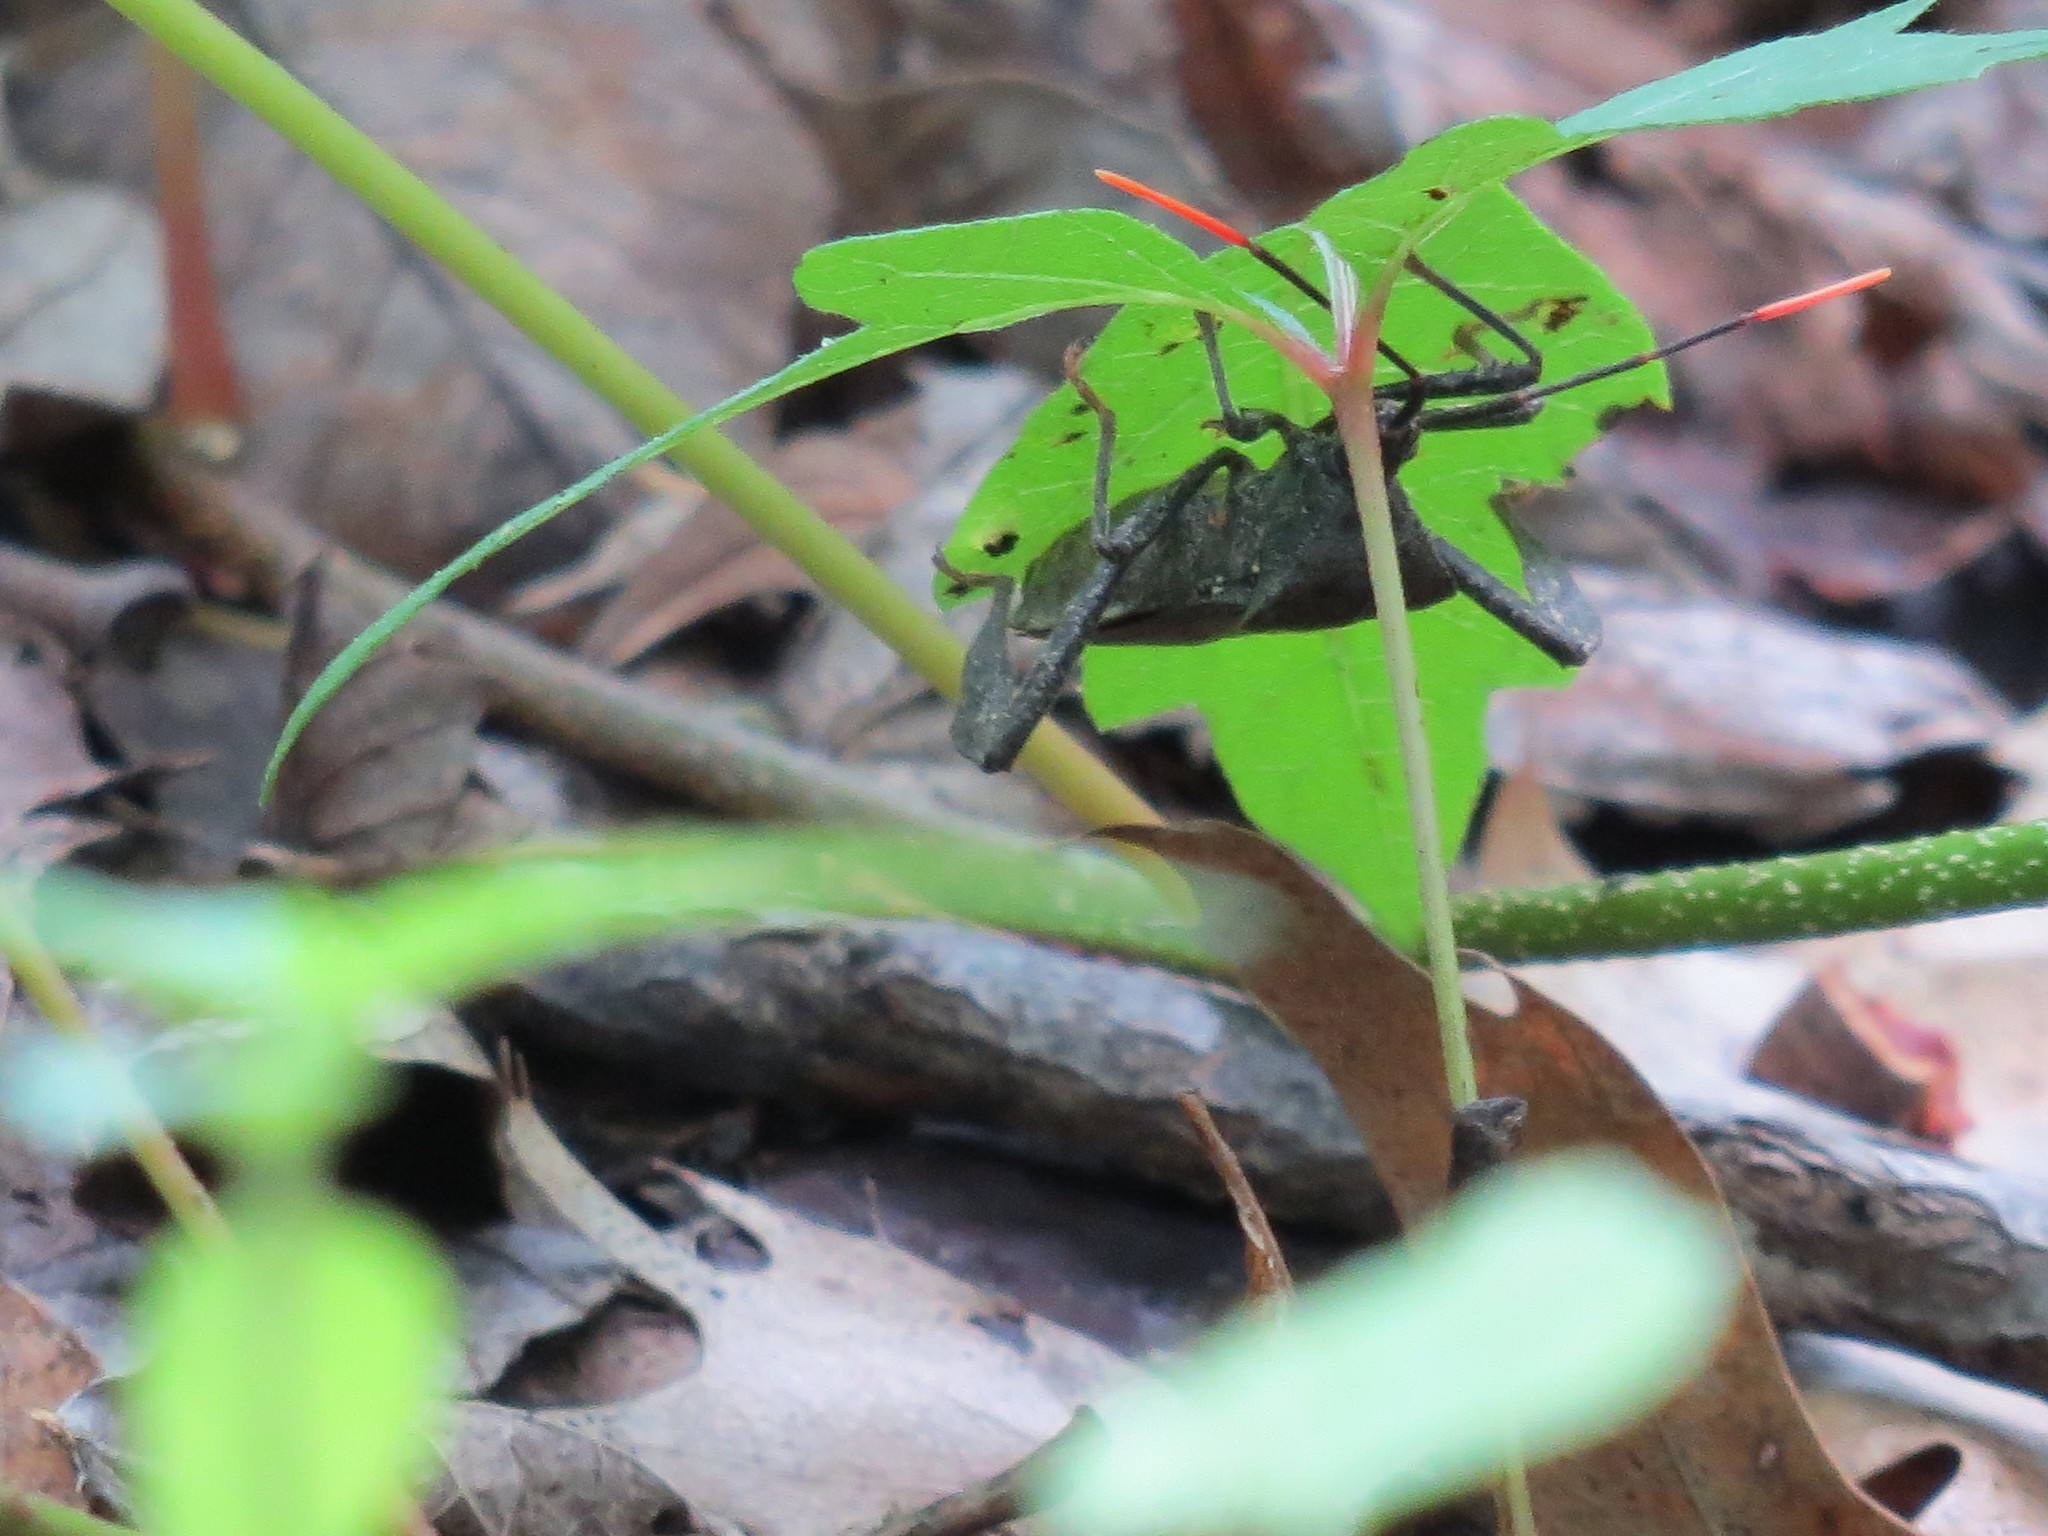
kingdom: Animalia
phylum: Arthropoda
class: Insecta
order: Hemiptera
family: Coreidae
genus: Acanthocephala
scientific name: Acanthocephala terminalis
